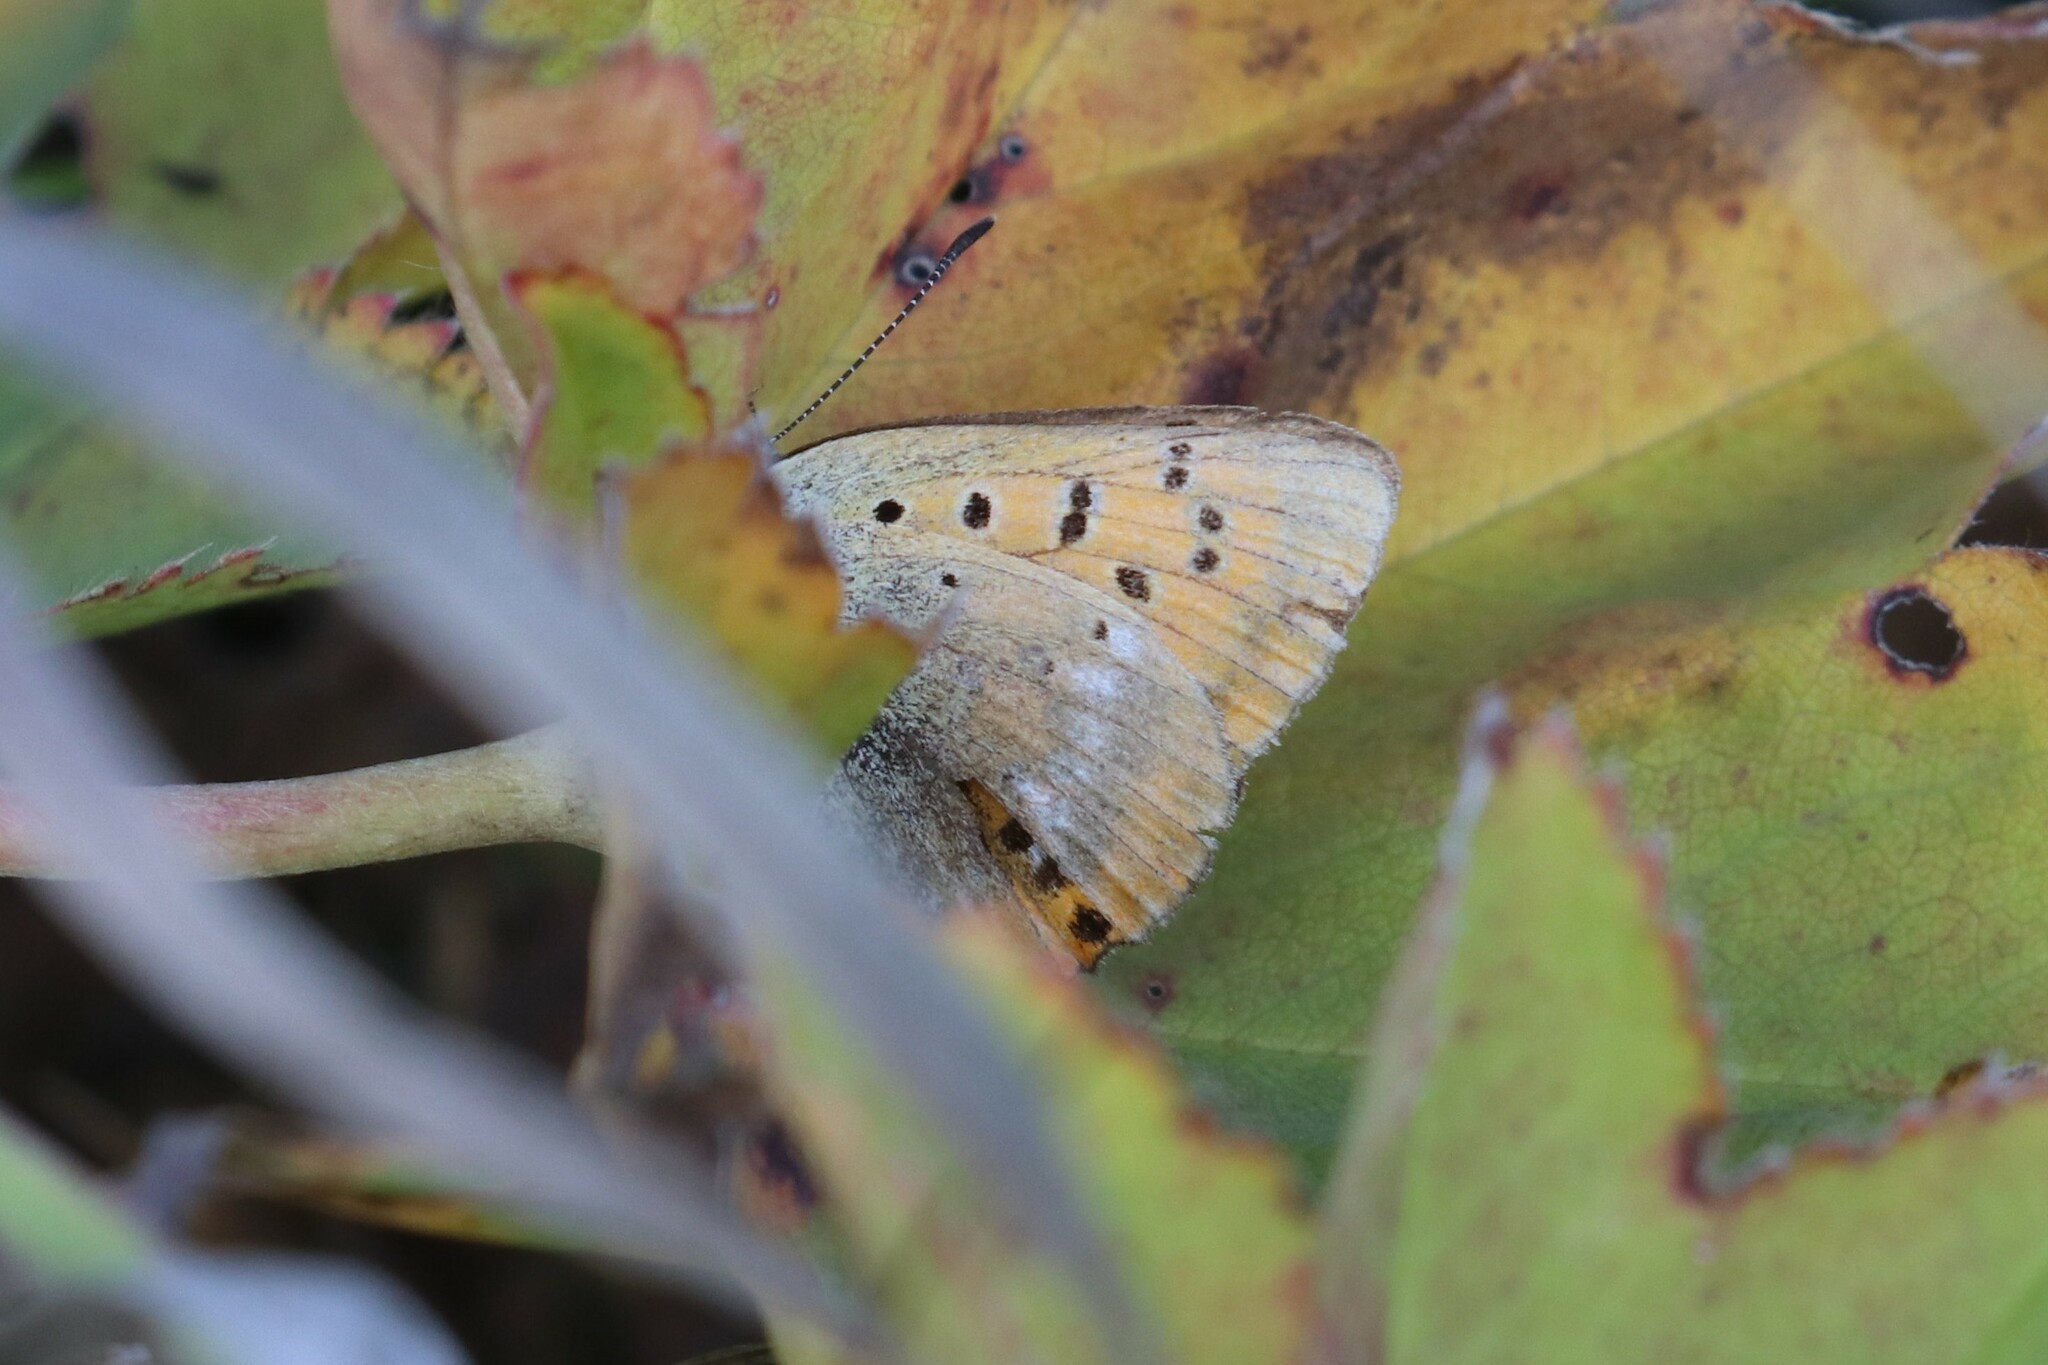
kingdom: Animalia
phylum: Arthropoda
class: Insecta
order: Lepidoptera
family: Lycaenidae
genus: Lycaena
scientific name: Lycaena virgaureae
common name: Scarce copper
